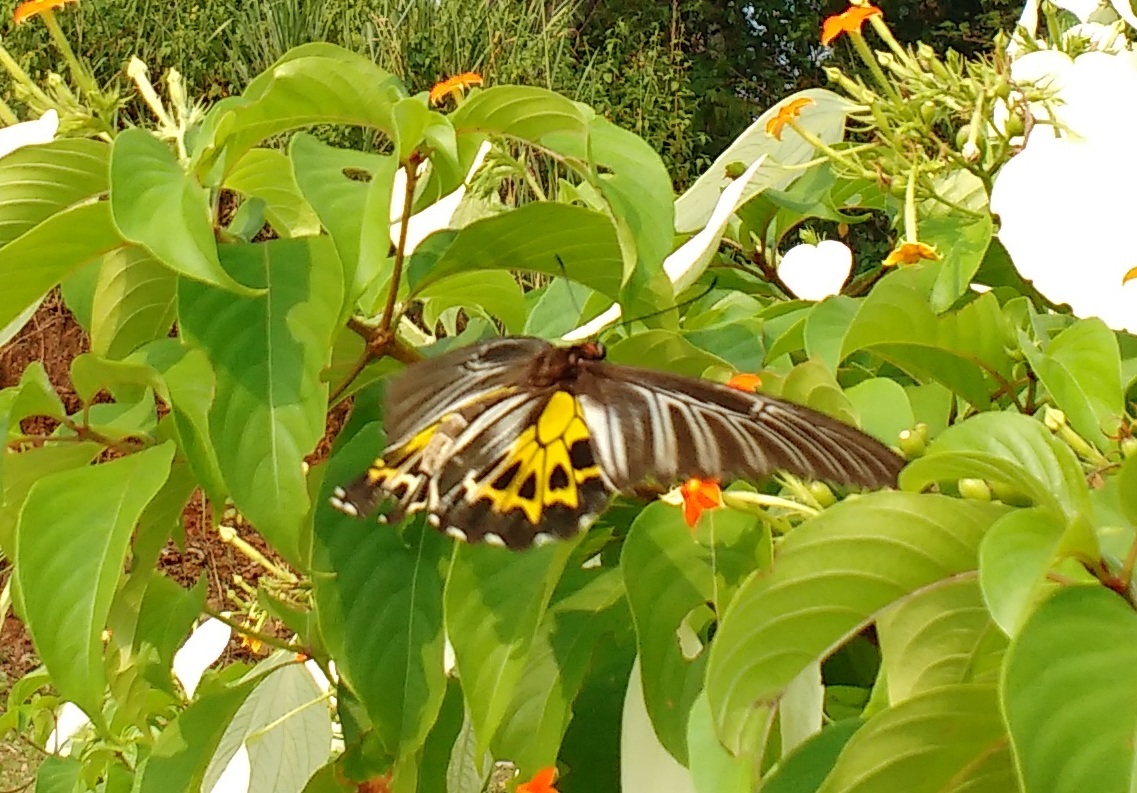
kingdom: Animalia
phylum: Arthropoda
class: Insecta
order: Lepidoptera
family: Papilionidae
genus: Troides
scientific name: Troides minos
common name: Malabar birdwing
